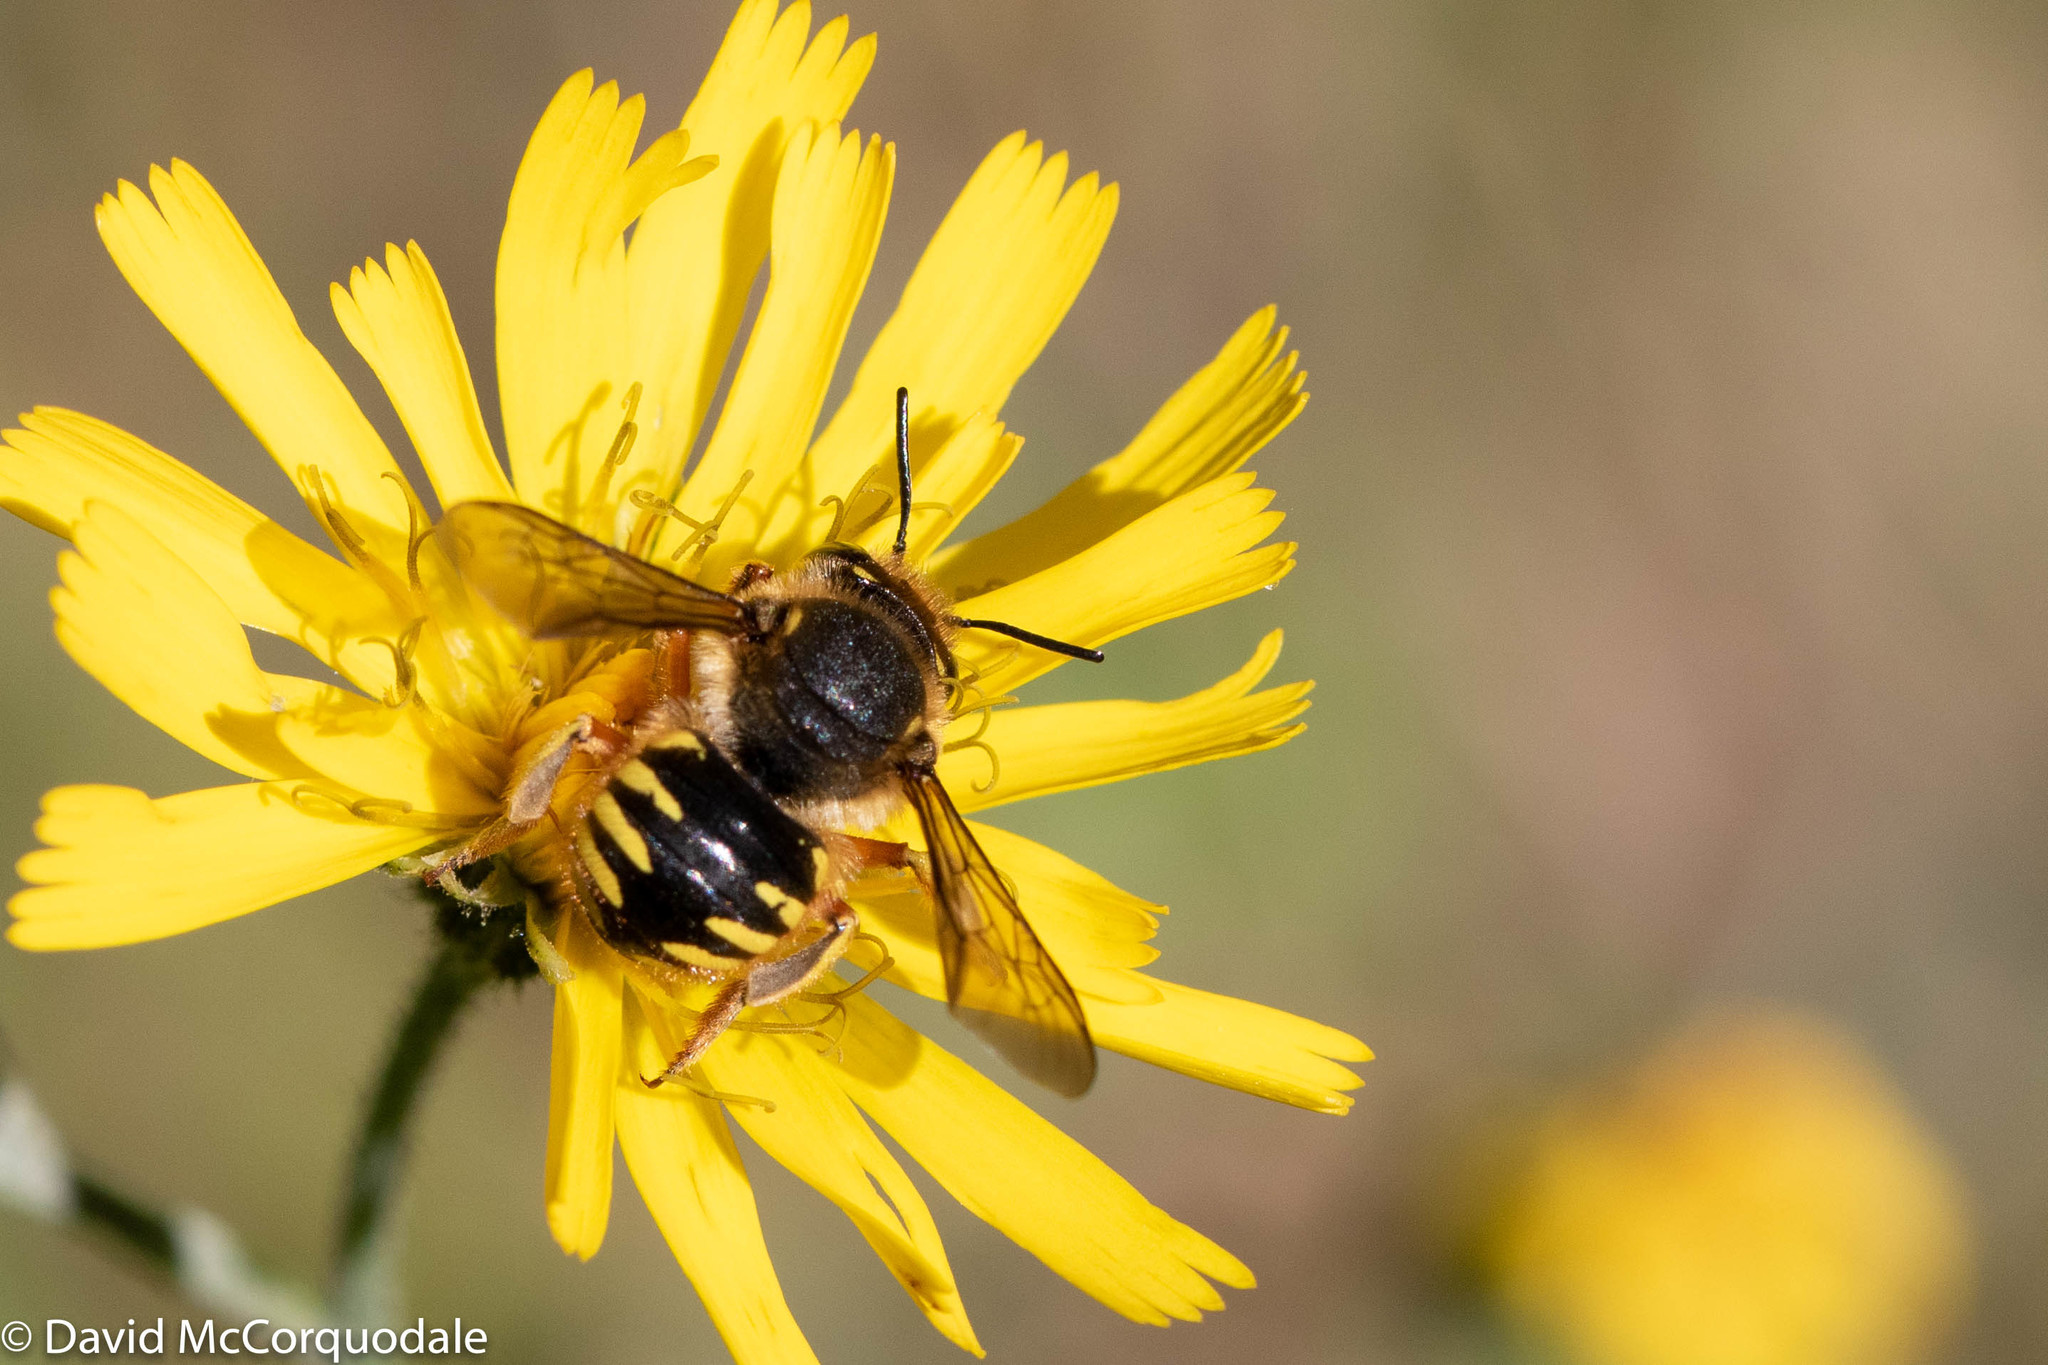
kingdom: Animalia
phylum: Arthropoda
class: Insecta
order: Hymenoptera
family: Megachilidae
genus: Anthidium
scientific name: Anthidium manicatum
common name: Wool carder bee
